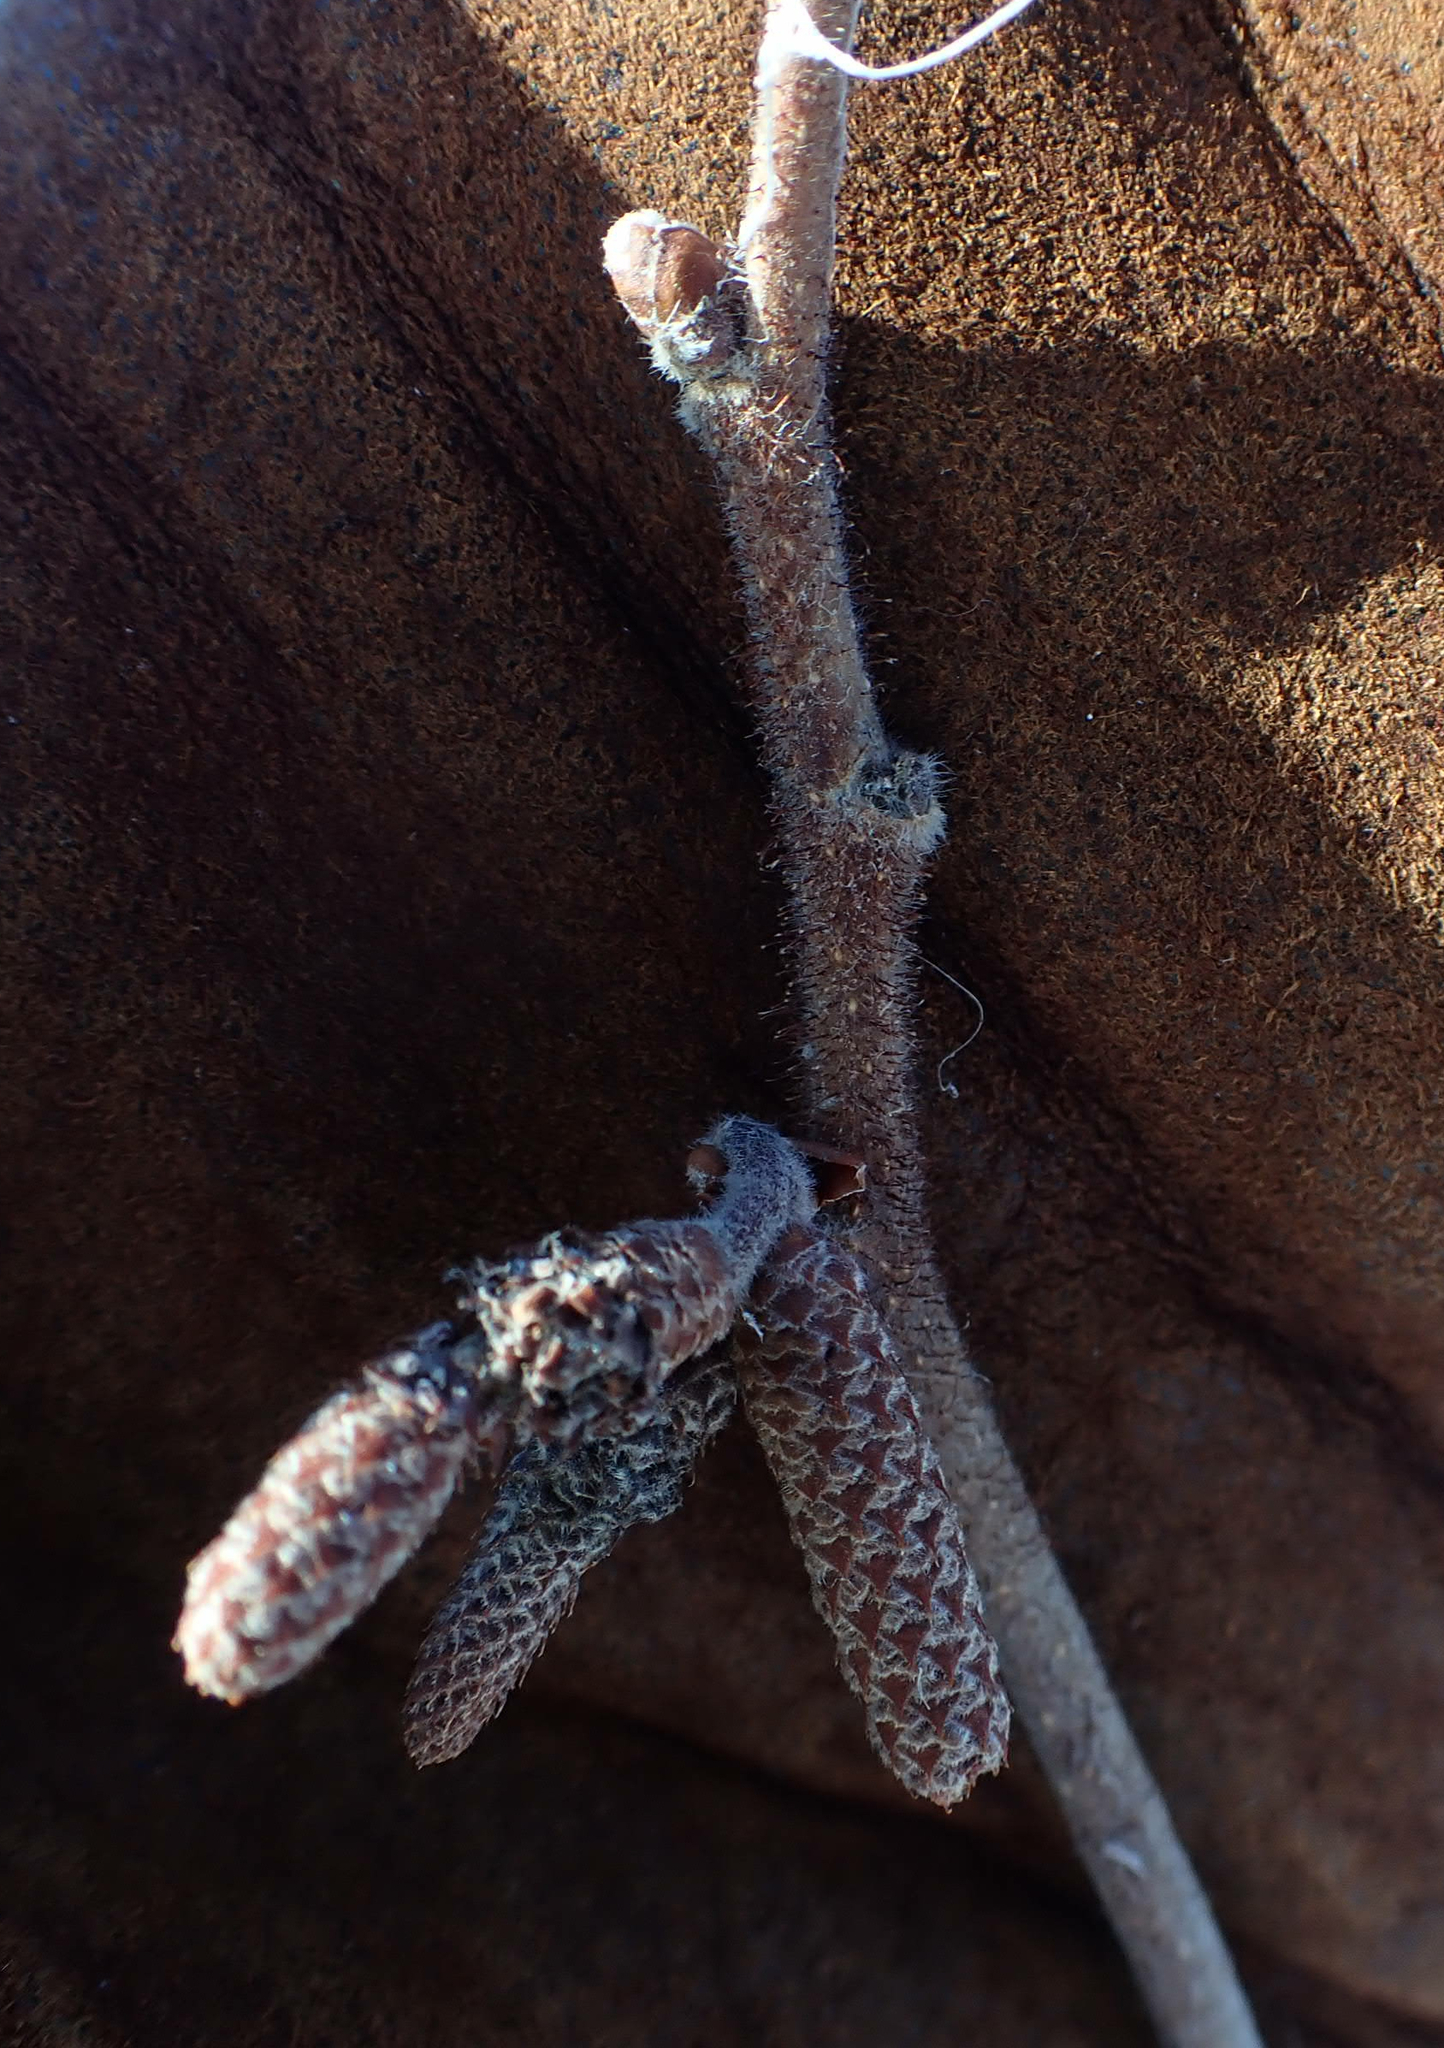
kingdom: Plantae
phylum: Tracheophyta
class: Magnoliopsida
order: Fagales
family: Betulaceae
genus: Corylus
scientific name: Corylus americana
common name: American hazel
